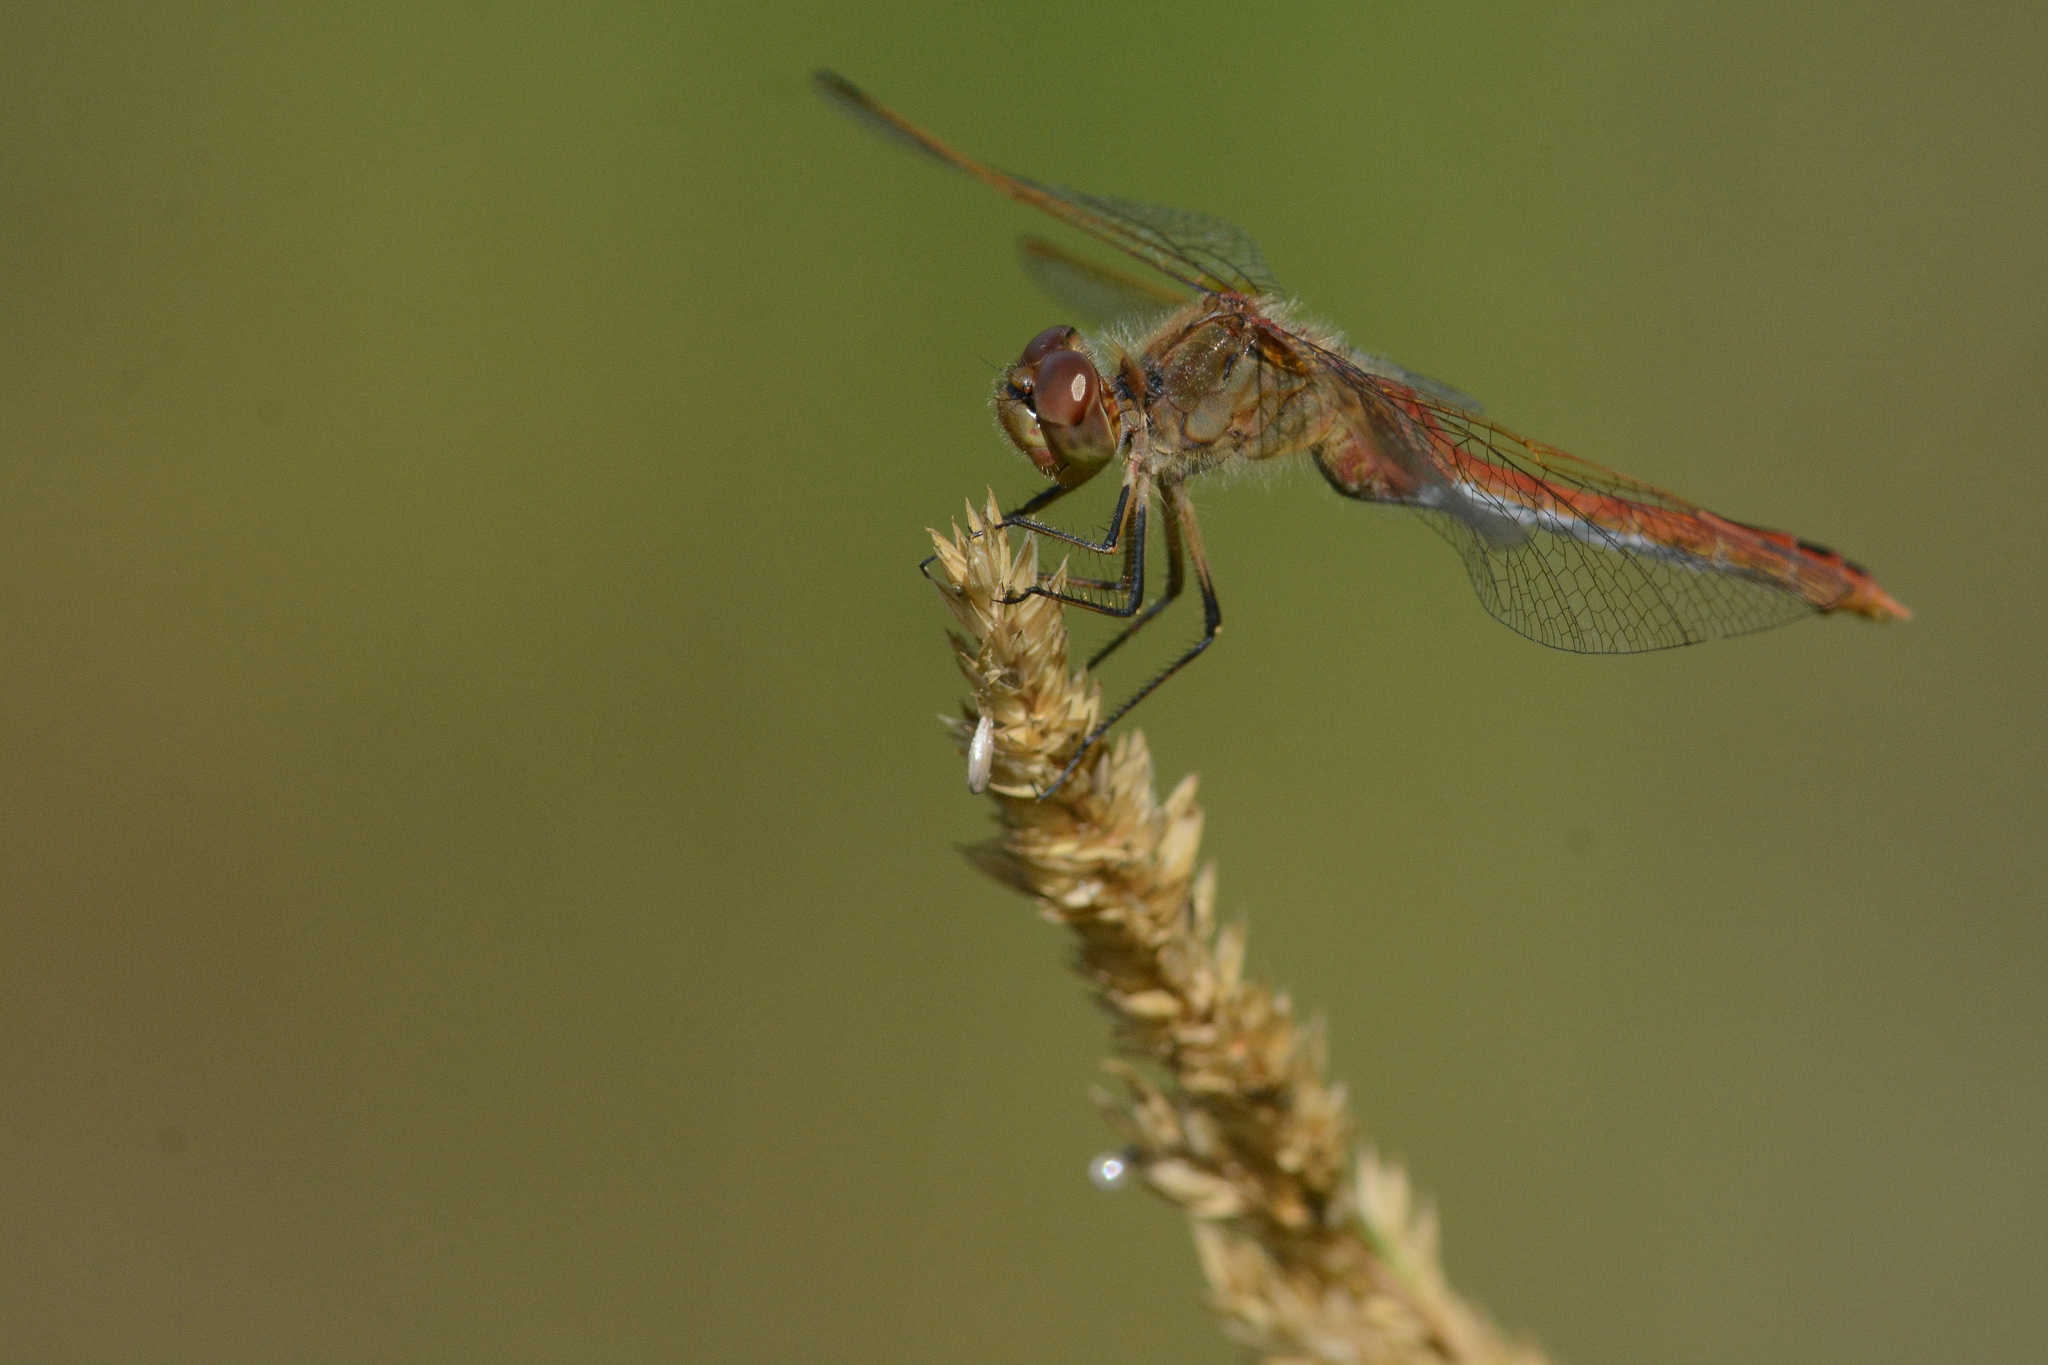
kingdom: Animalia
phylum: Arthropoda
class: Insecta
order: Odonata
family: Libellulidae
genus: Sympetrum
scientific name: Sympetrum costiferum
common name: Saffron-winged meadowhawk
